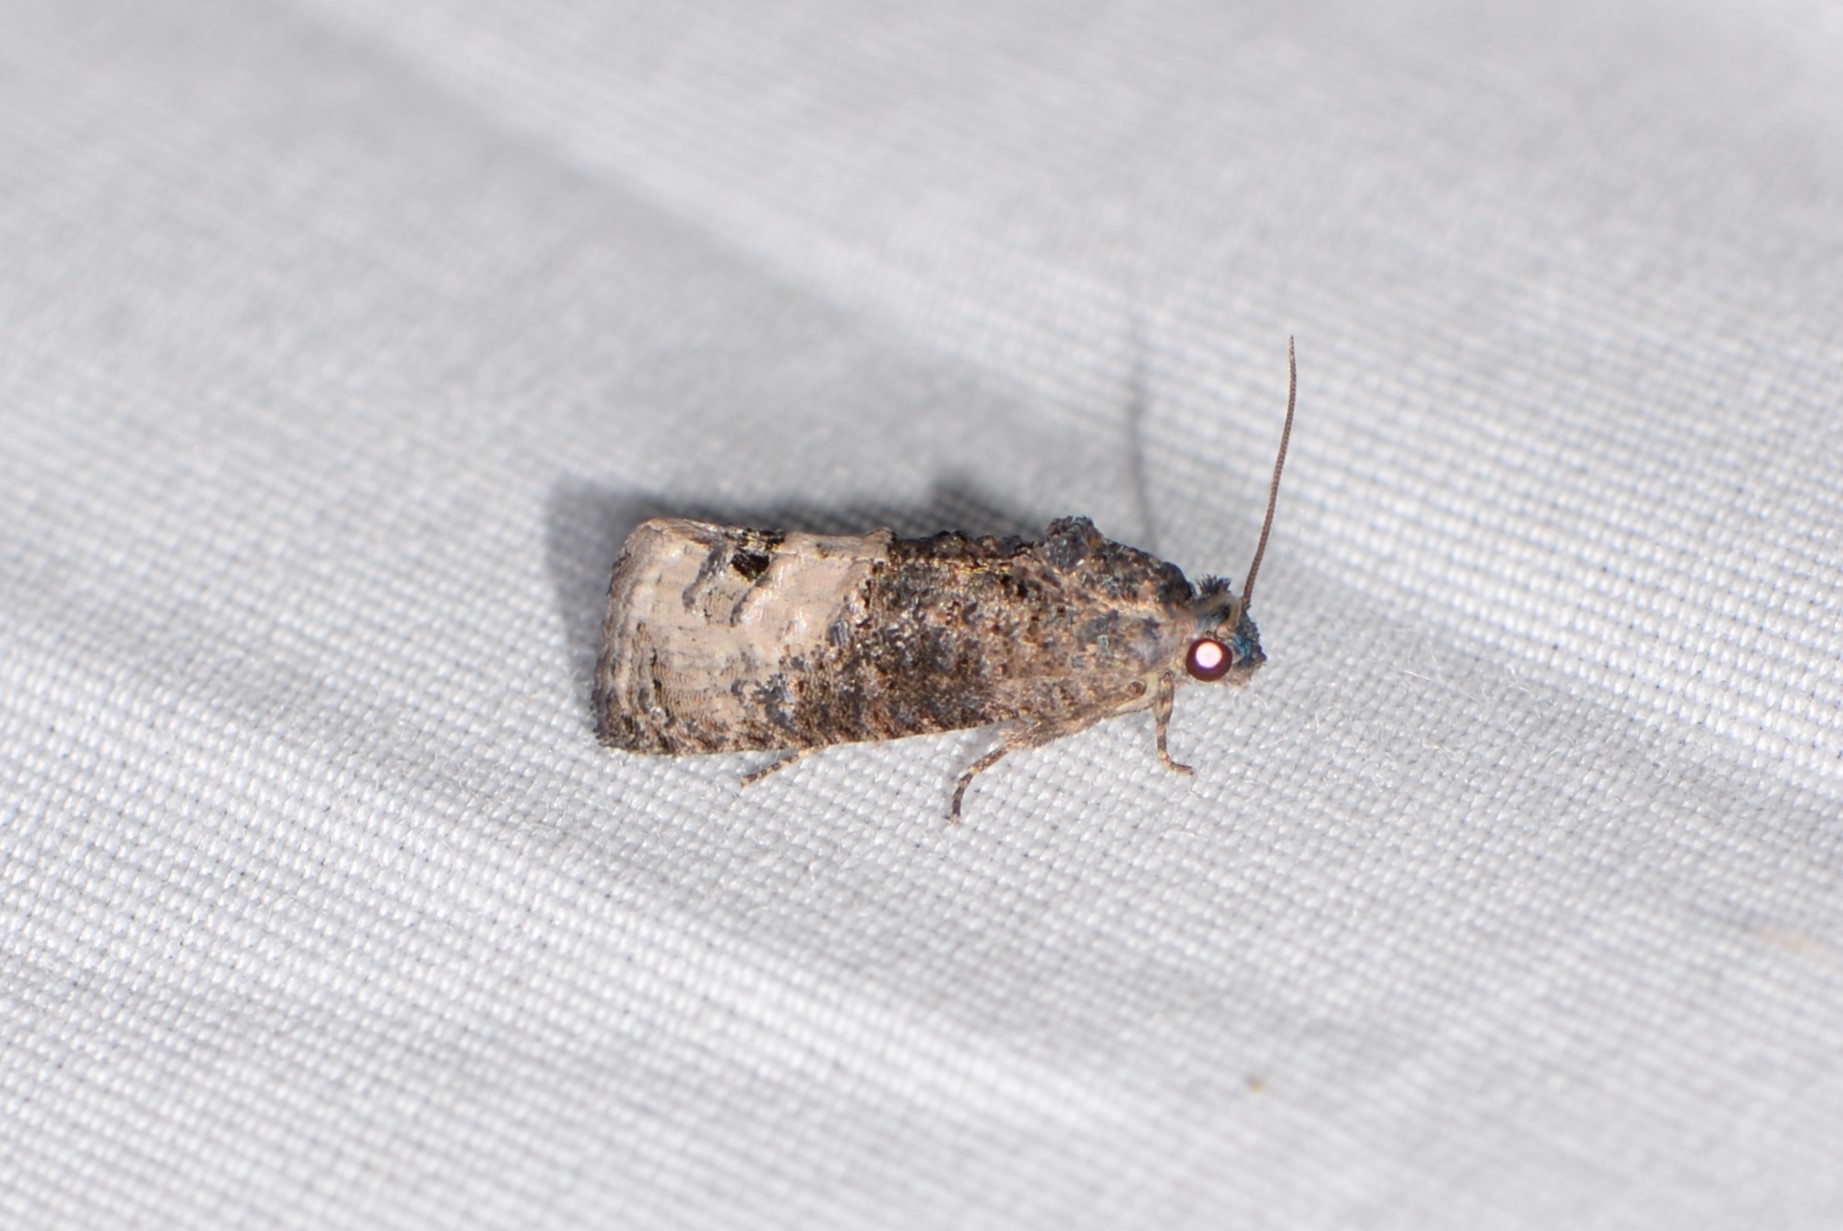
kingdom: Animalia
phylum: Arthropoda
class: Insecta
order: Lepidoptera
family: Tortricidae
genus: Ecdytolopha
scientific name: Ecdytolopha insiticiana
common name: Locust twig borer moth
